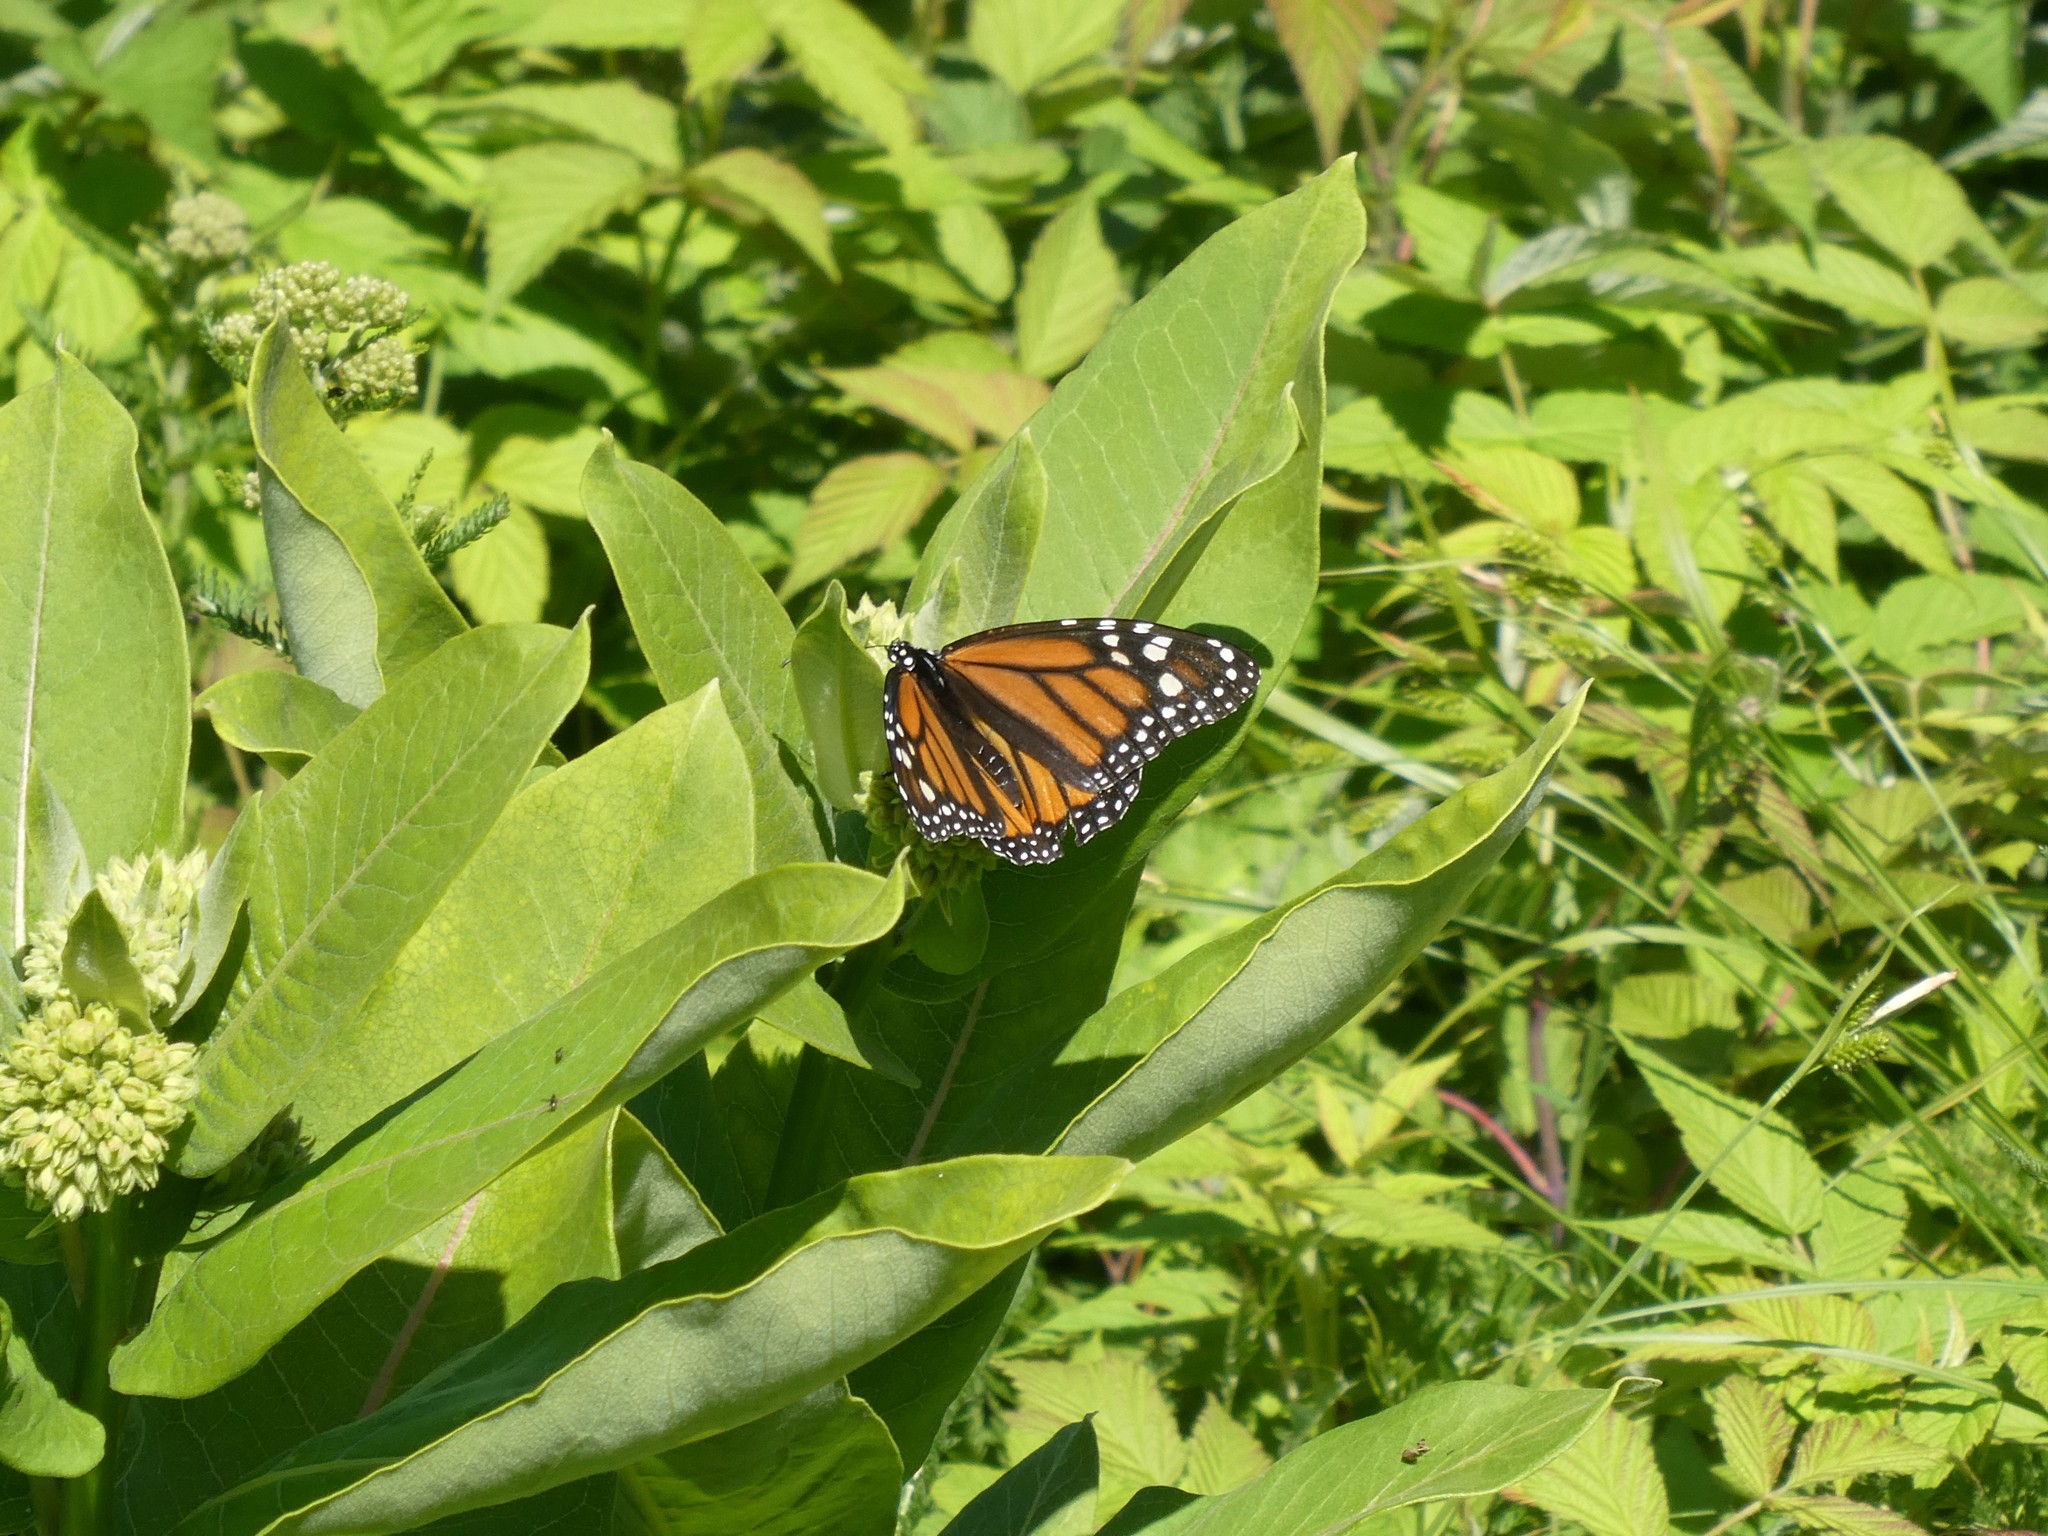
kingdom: Animalia
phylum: Arthropoda
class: Insecta
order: Lepidoptera
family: Nymphalidae
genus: Danaus
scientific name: Danaus plexippus
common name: Monarch
